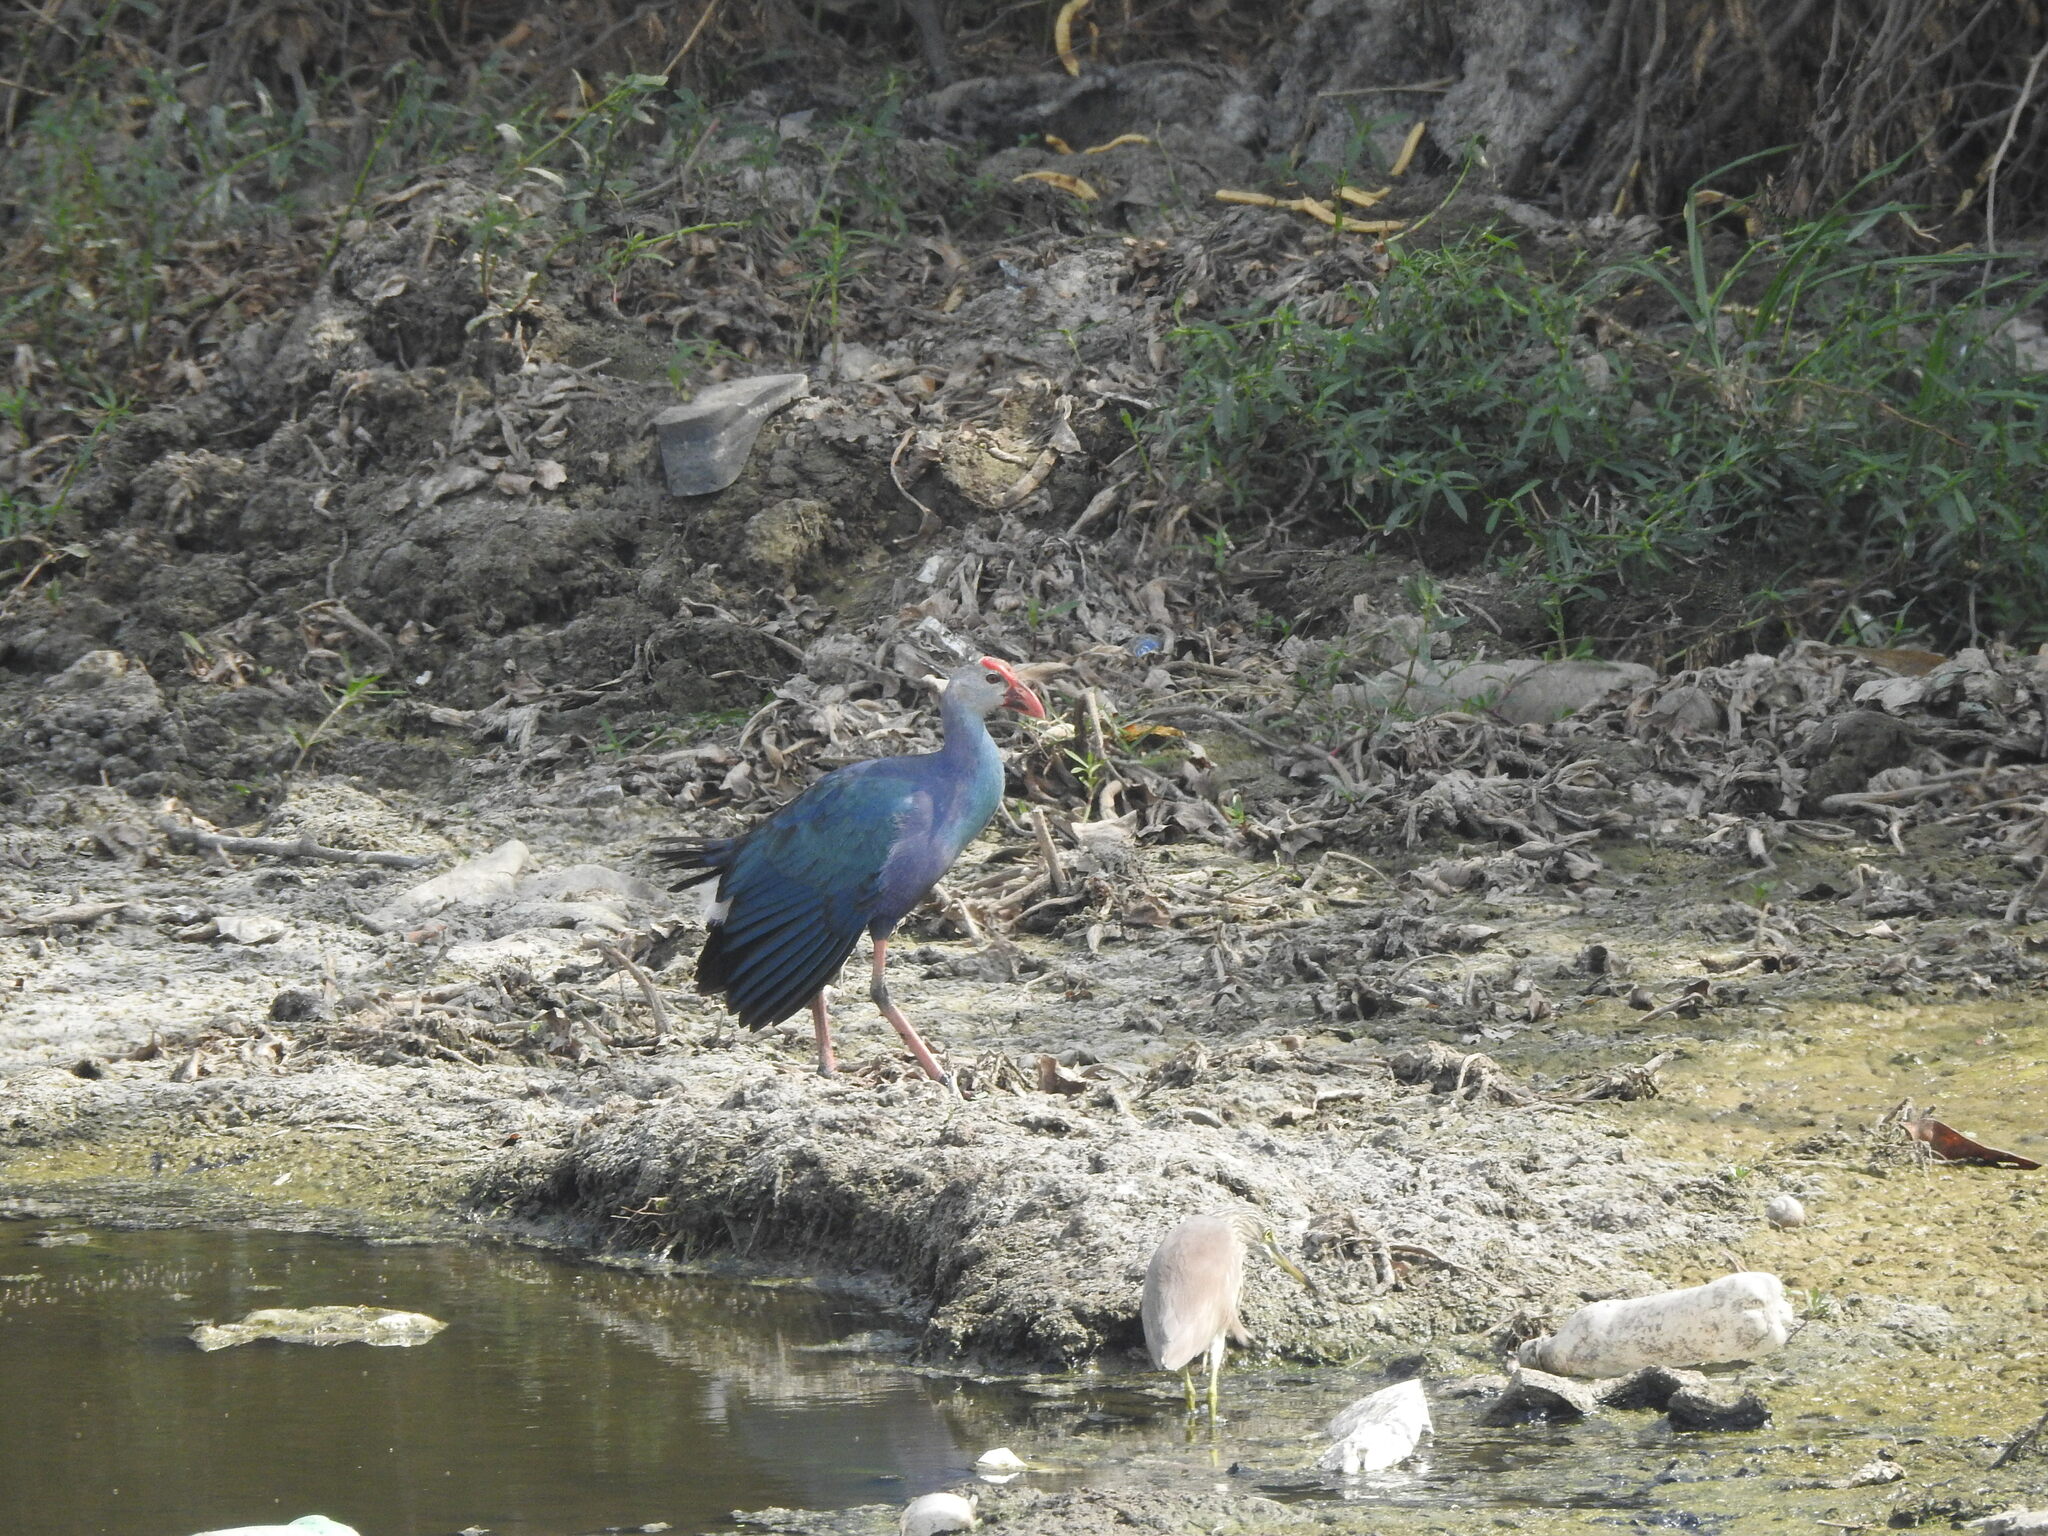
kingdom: Animalia
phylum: Chordata
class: Aves
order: Gruiformes
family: Rallidae
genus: Porphyrio
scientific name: Porphyrio porphyrio
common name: Purple swamphen
